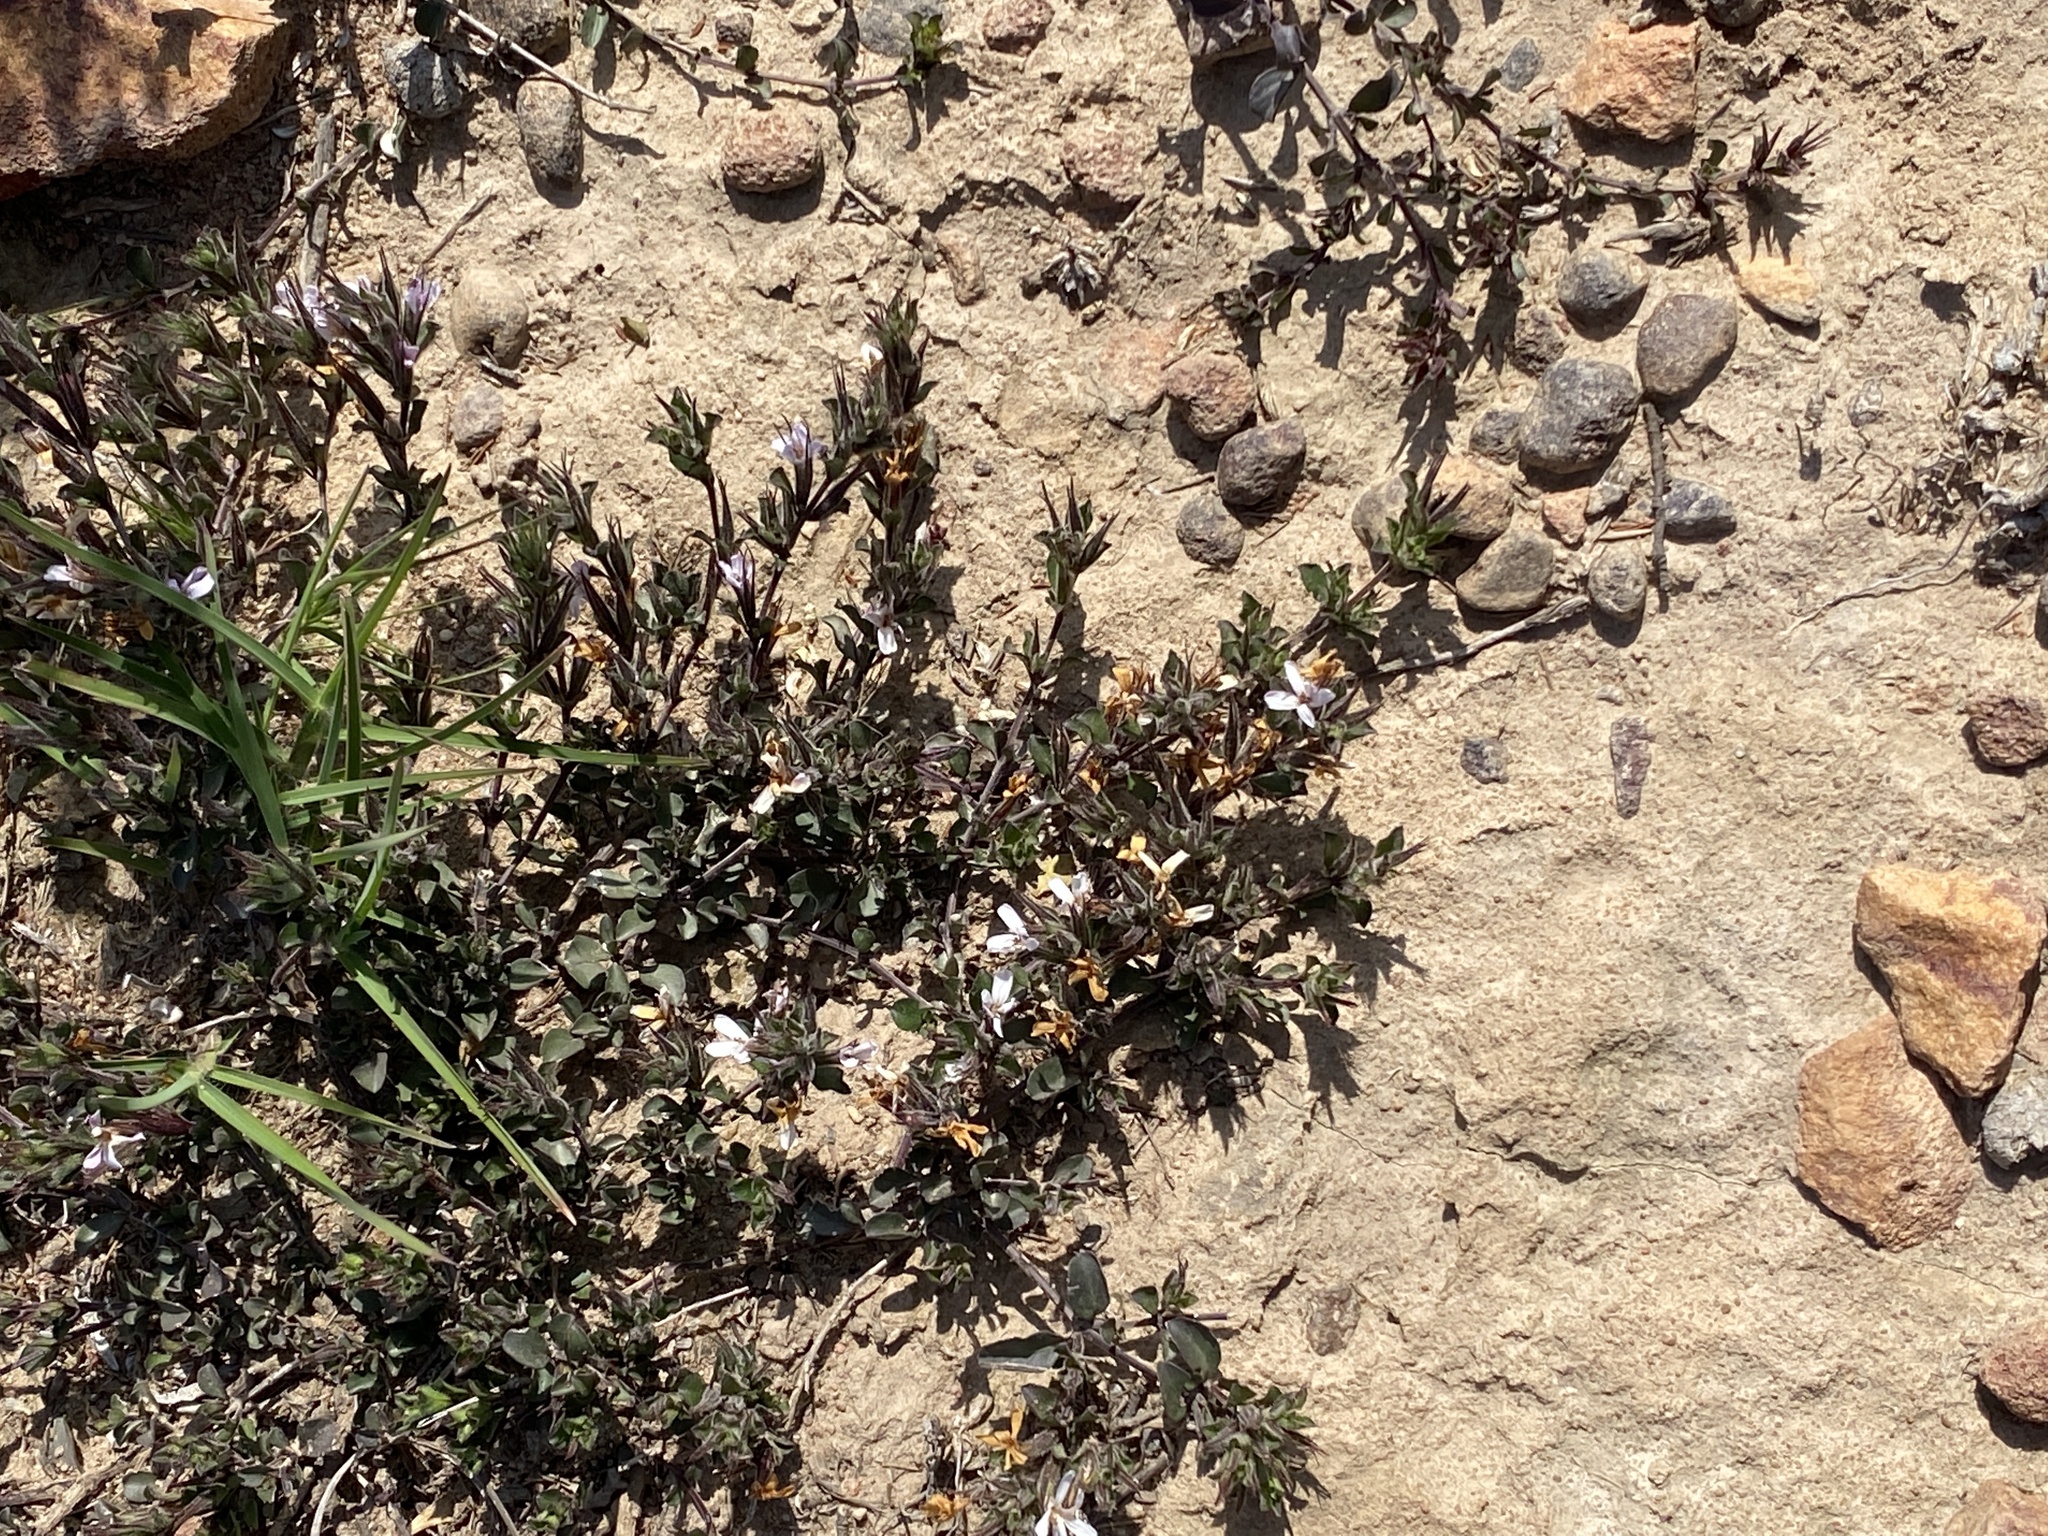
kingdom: Plantae
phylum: Tracheophyta
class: Magnoliopsida
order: Lamiales
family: Acanthaceae
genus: Dyschoriste
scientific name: Dyschoriste setigera
